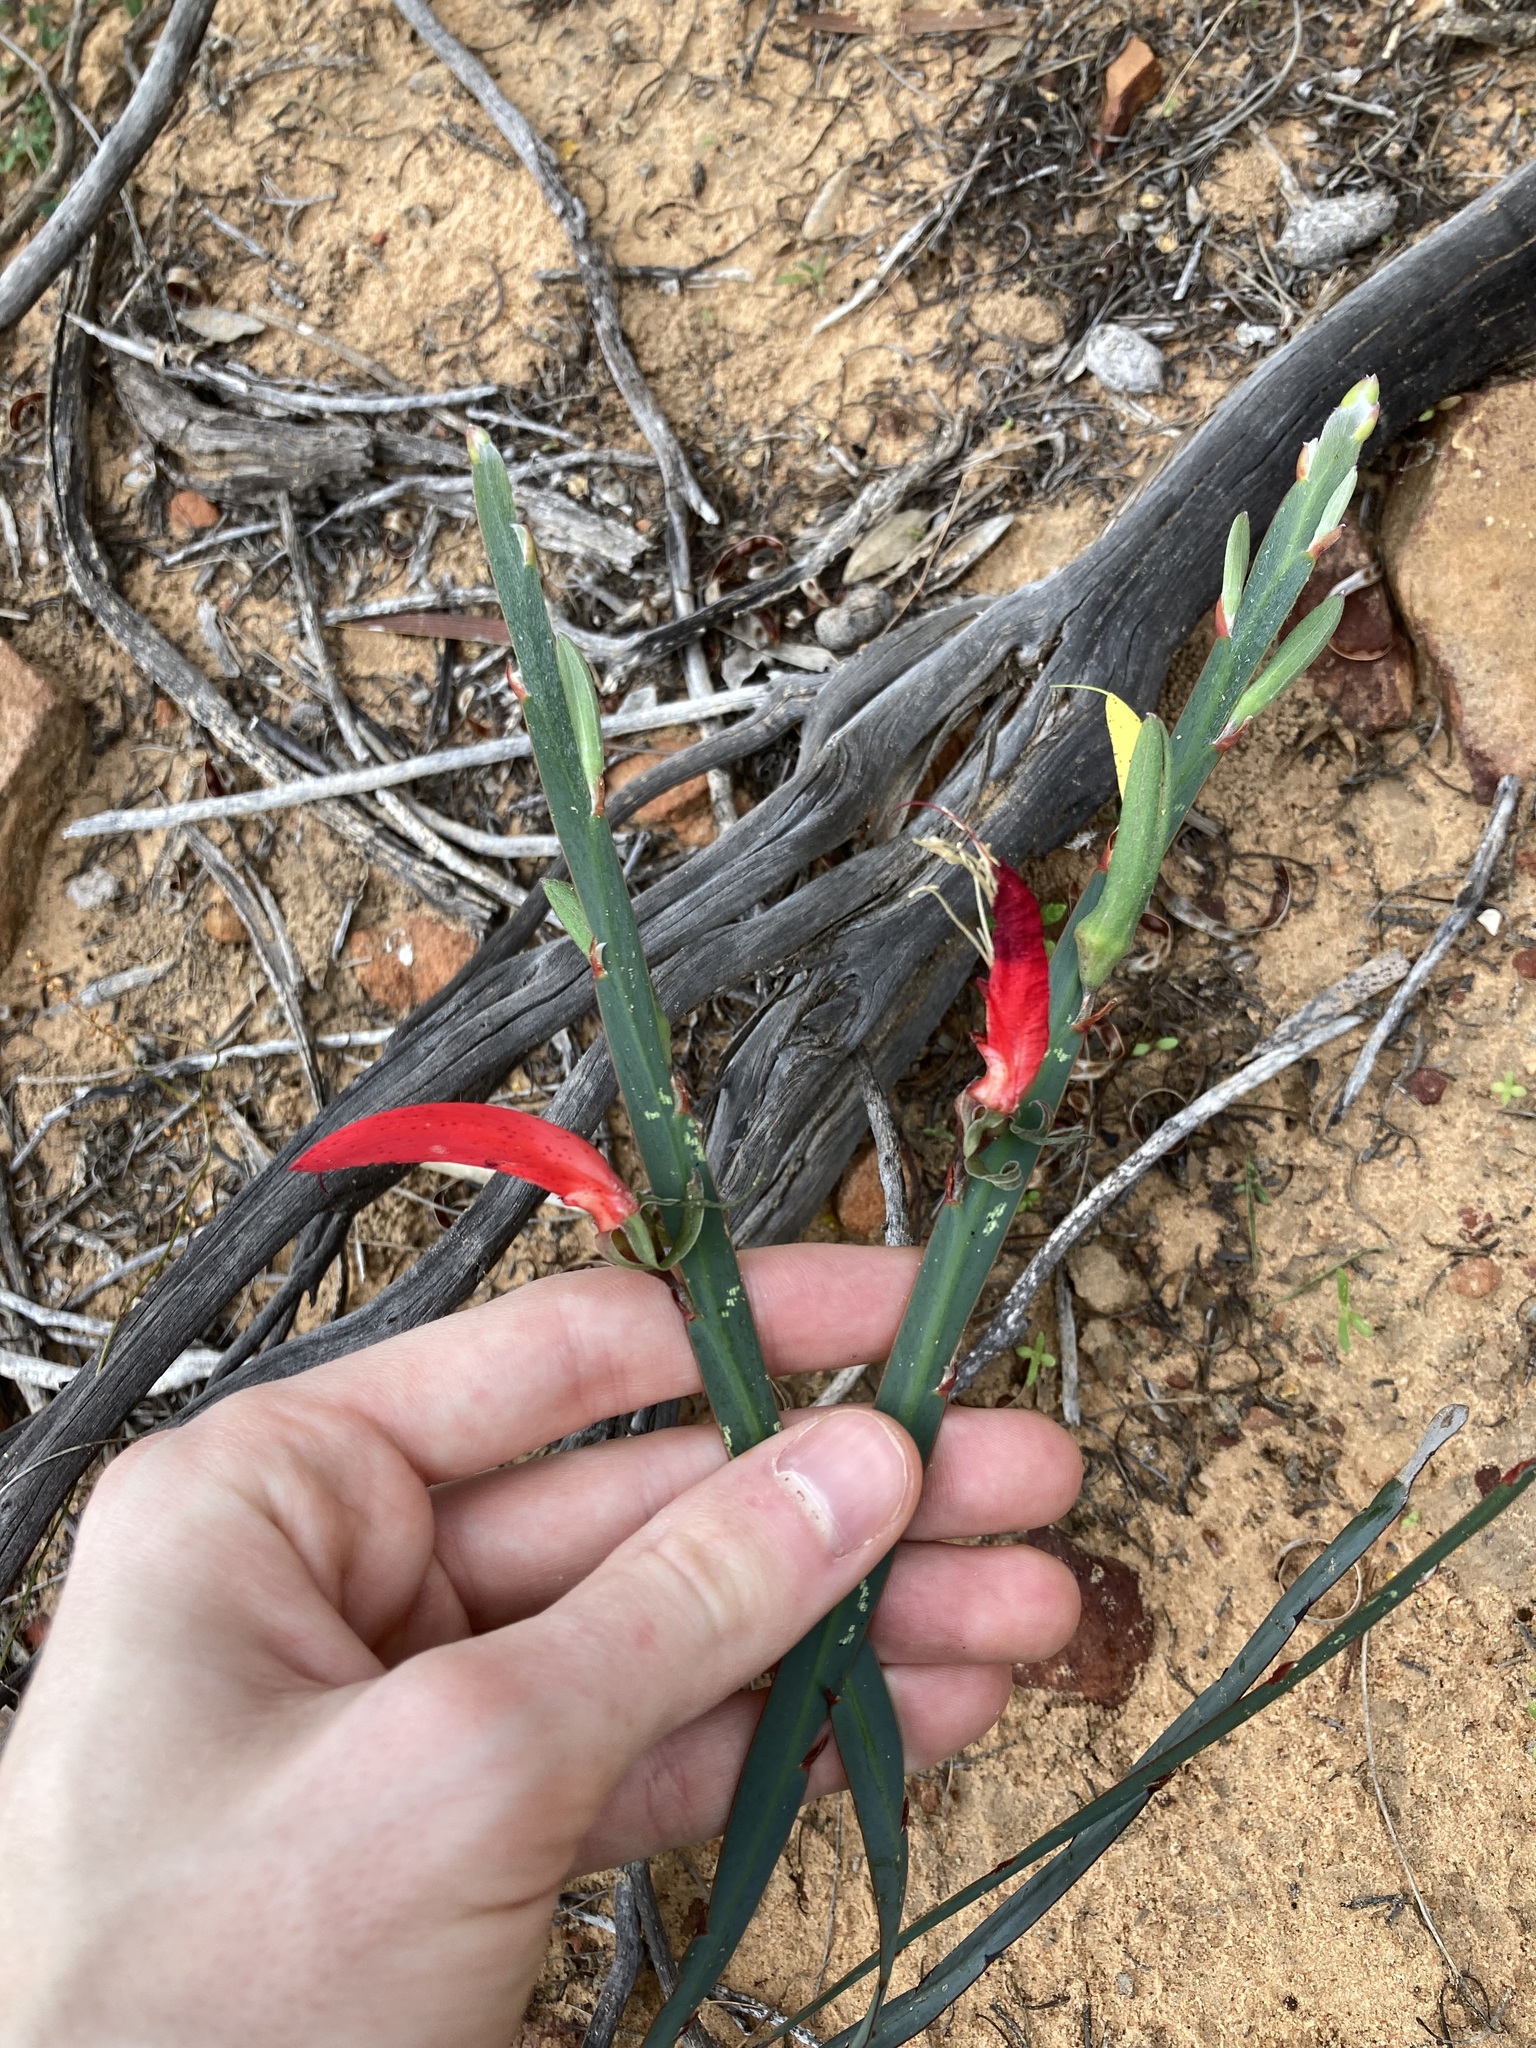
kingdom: Plantae
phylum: Tracheophyta
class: Magnoliopsida
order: Fabales
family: Fabaceae
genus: Leptosema
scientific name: Leptosema aphyllum
